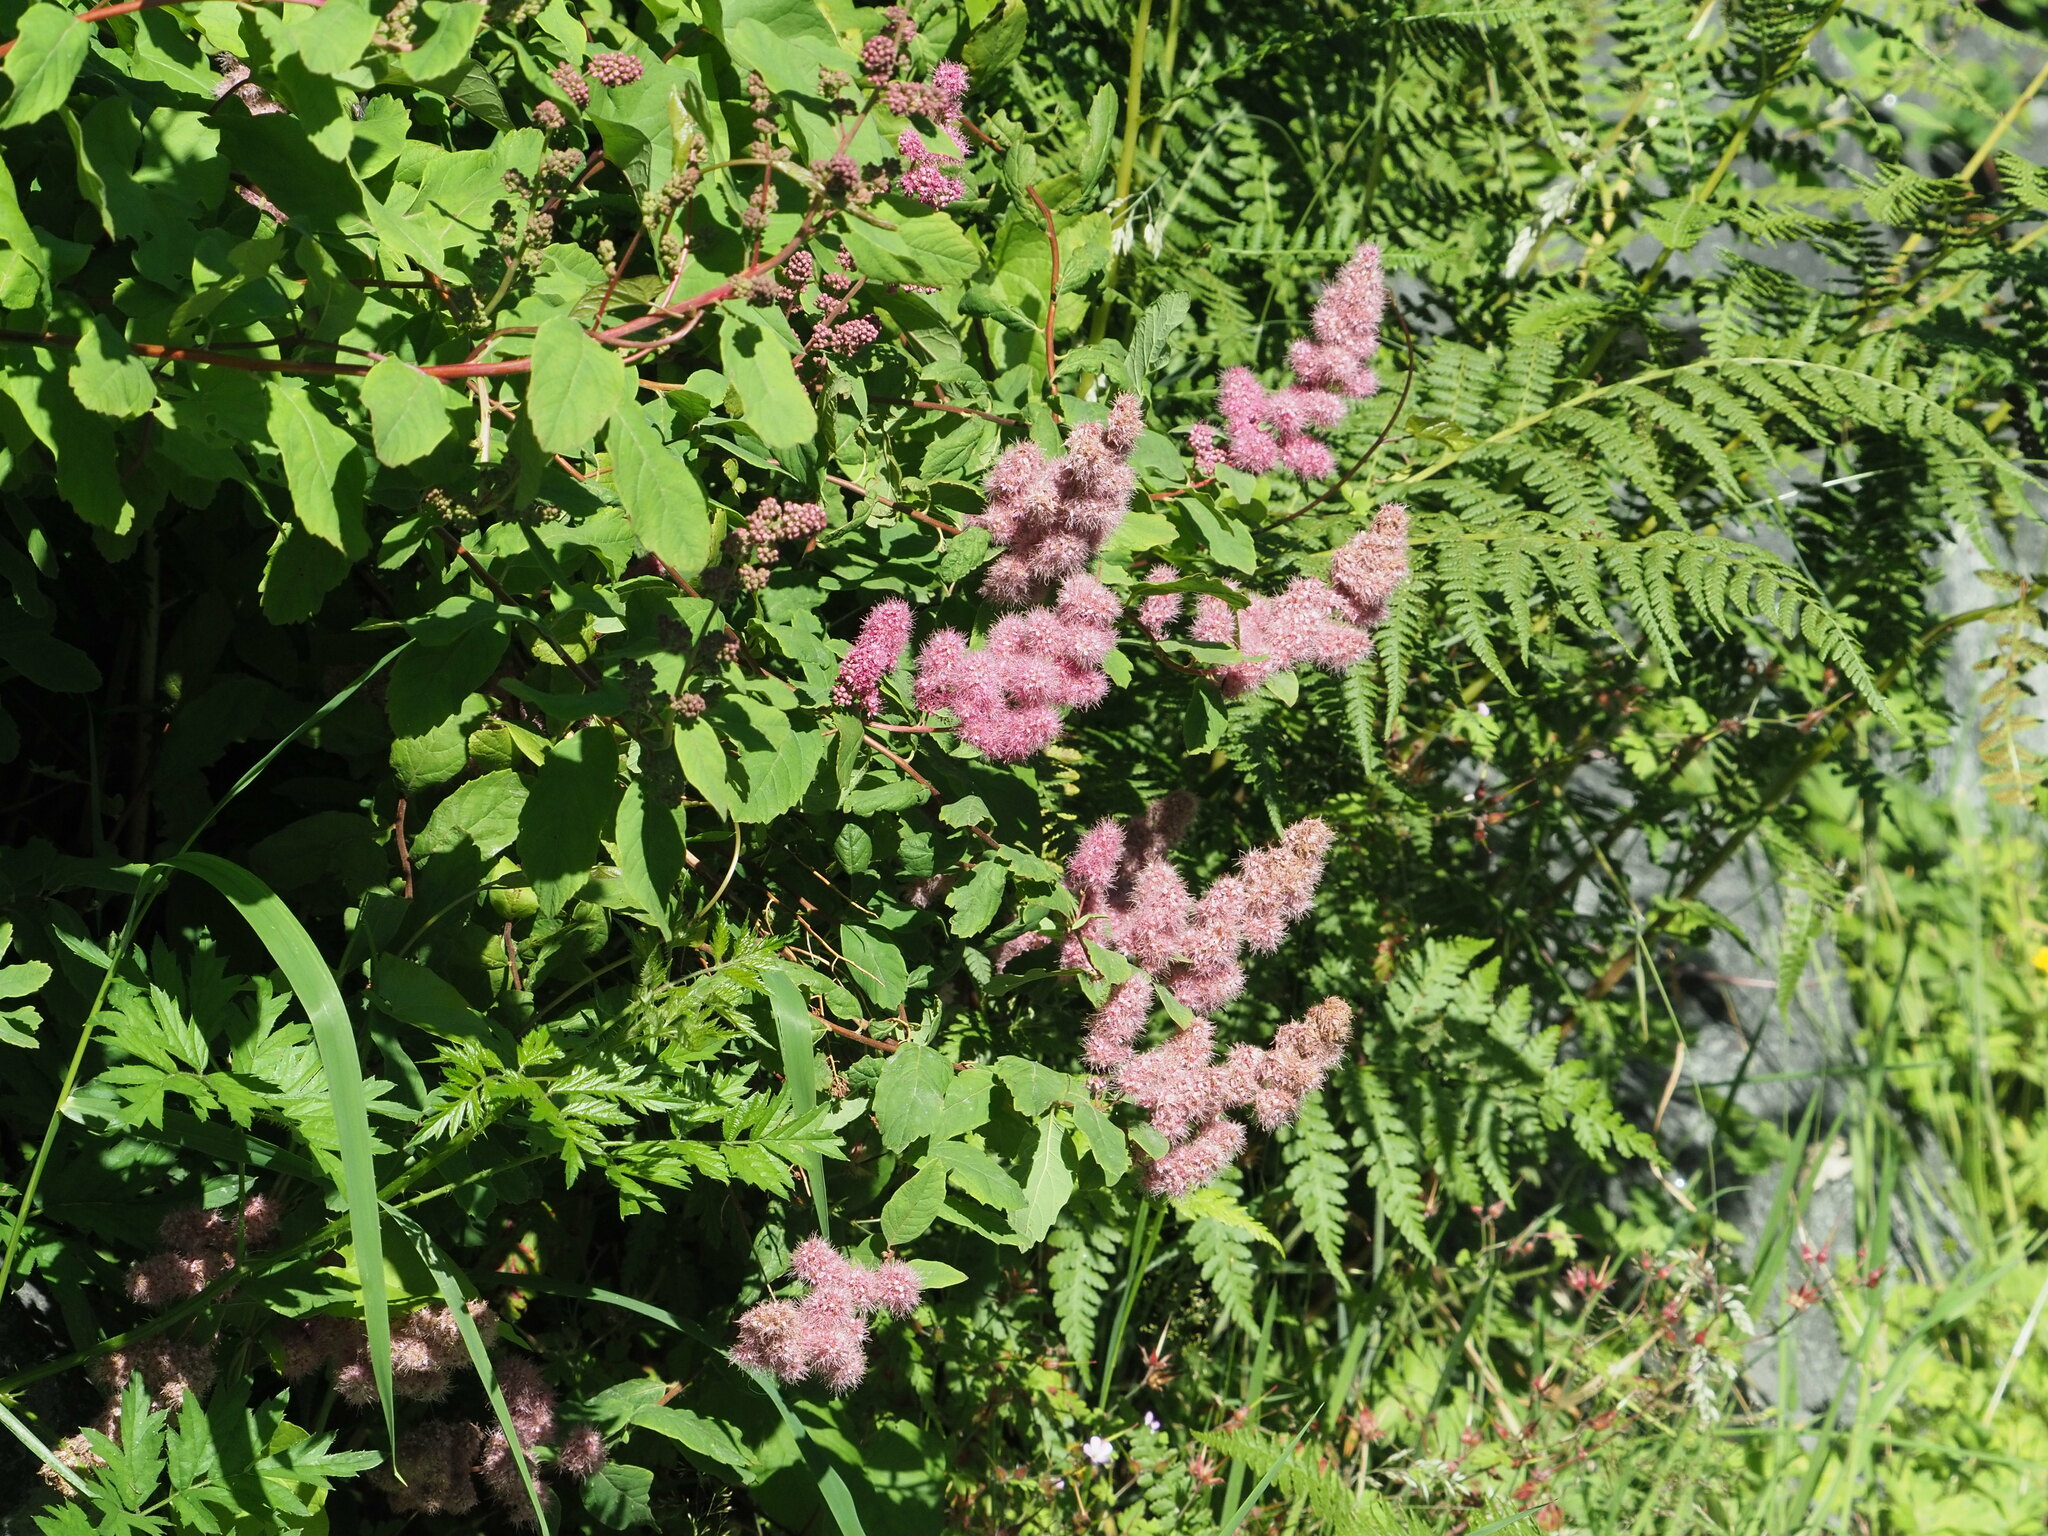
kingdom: Plantae
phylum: Tracheophyta
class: Magnoliopsida
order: Rosales
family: Rosaceae
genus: Spiraea
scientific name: Spiraea douglasii
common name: Steeplebush
